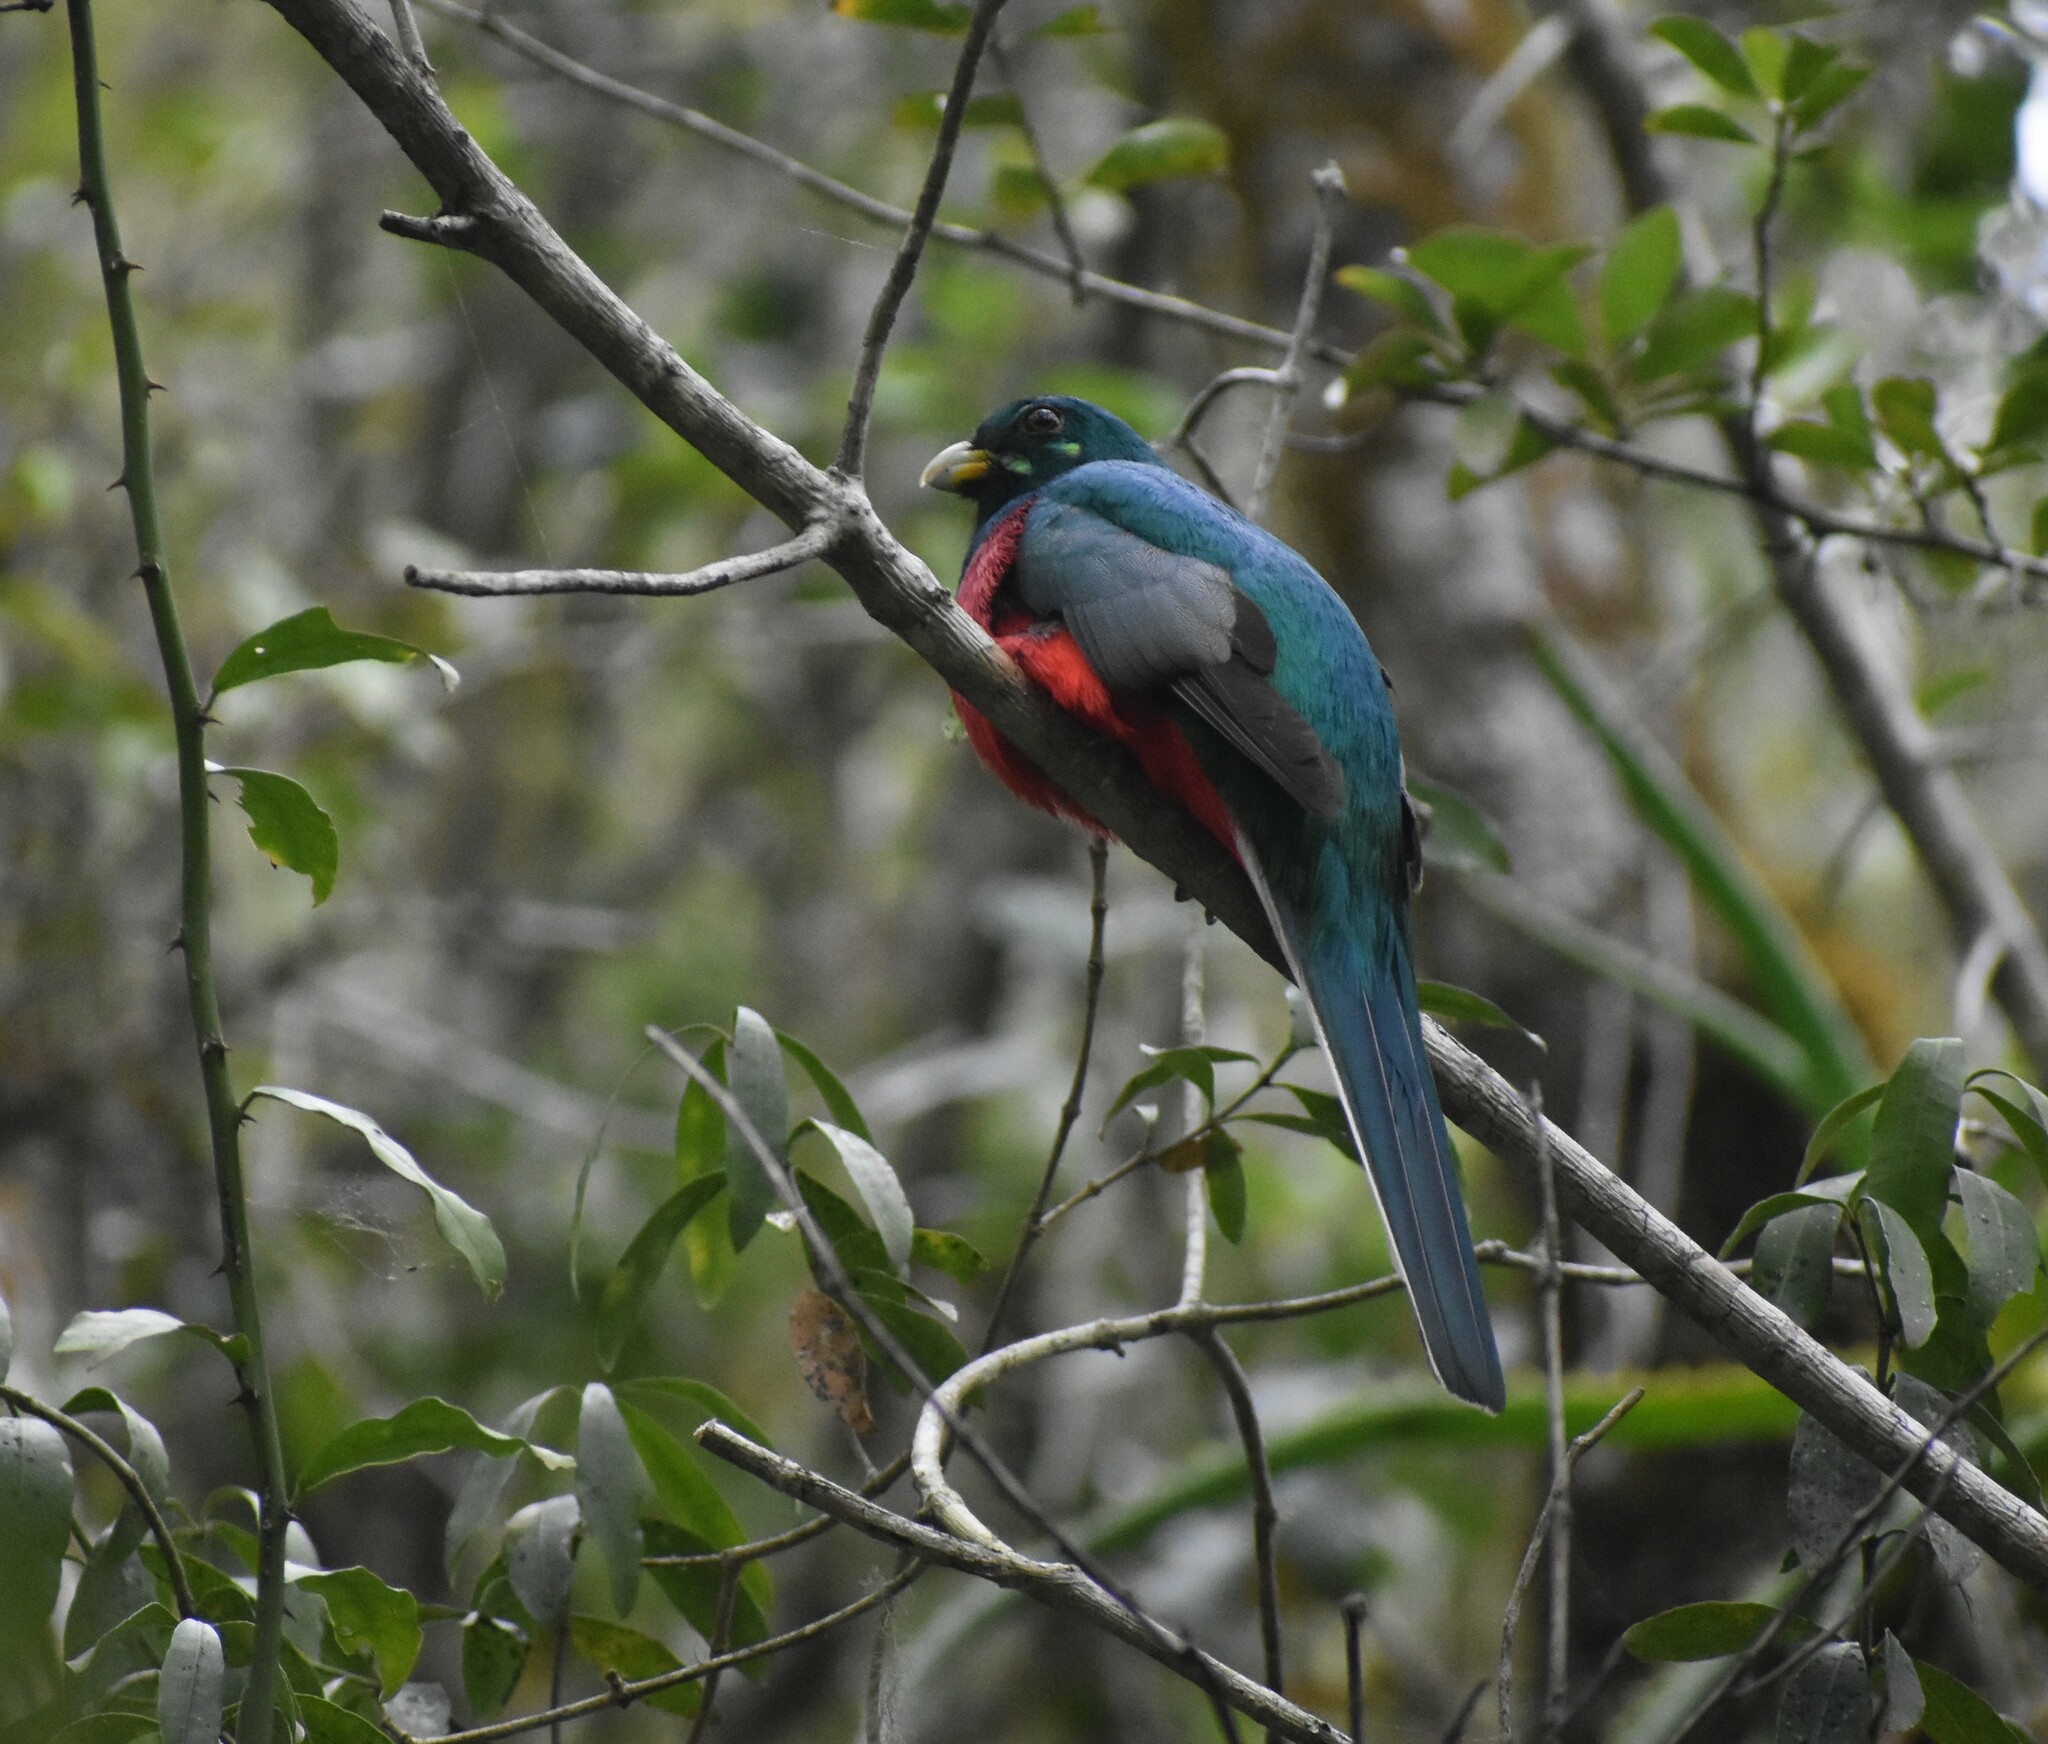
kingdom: Animalia
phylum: Chordata
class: Aves
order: Trogoniformes
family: Trogonidae
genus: Apaloderma
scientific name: Apaloderma narina
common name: Narina trogon
